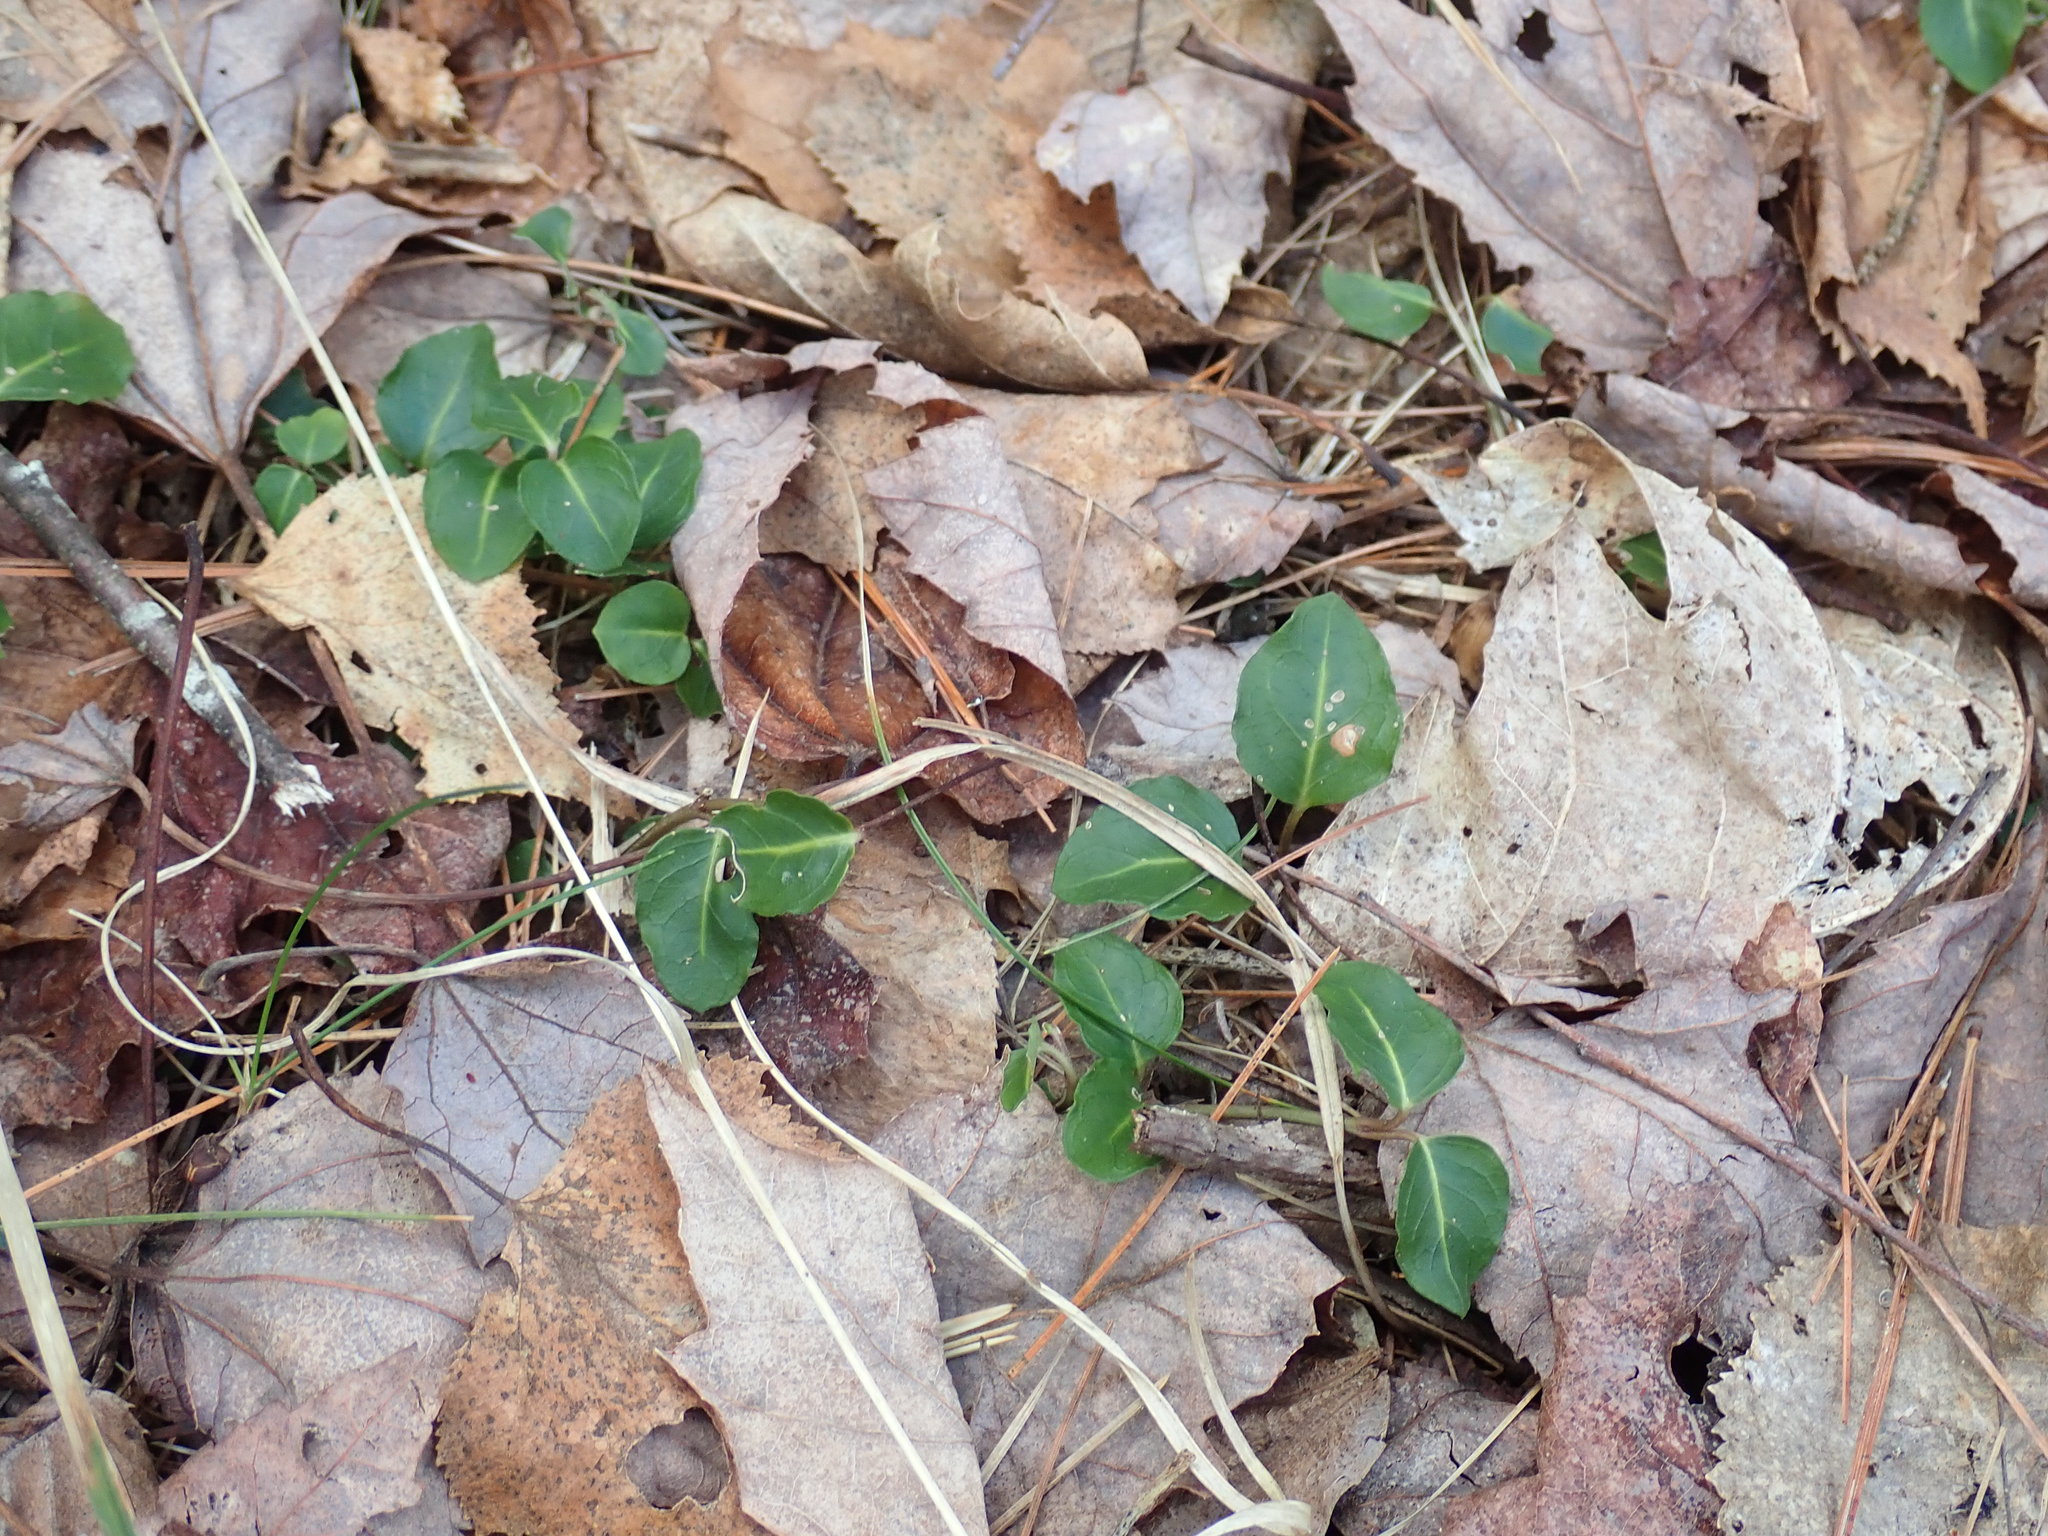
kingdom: Plantae
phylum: Tracheophyta
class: Magnoliopsida
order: Gentianales
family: Rubiaceae
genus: Mitchella
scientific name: Mitchella repens
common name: Partridge-berry
